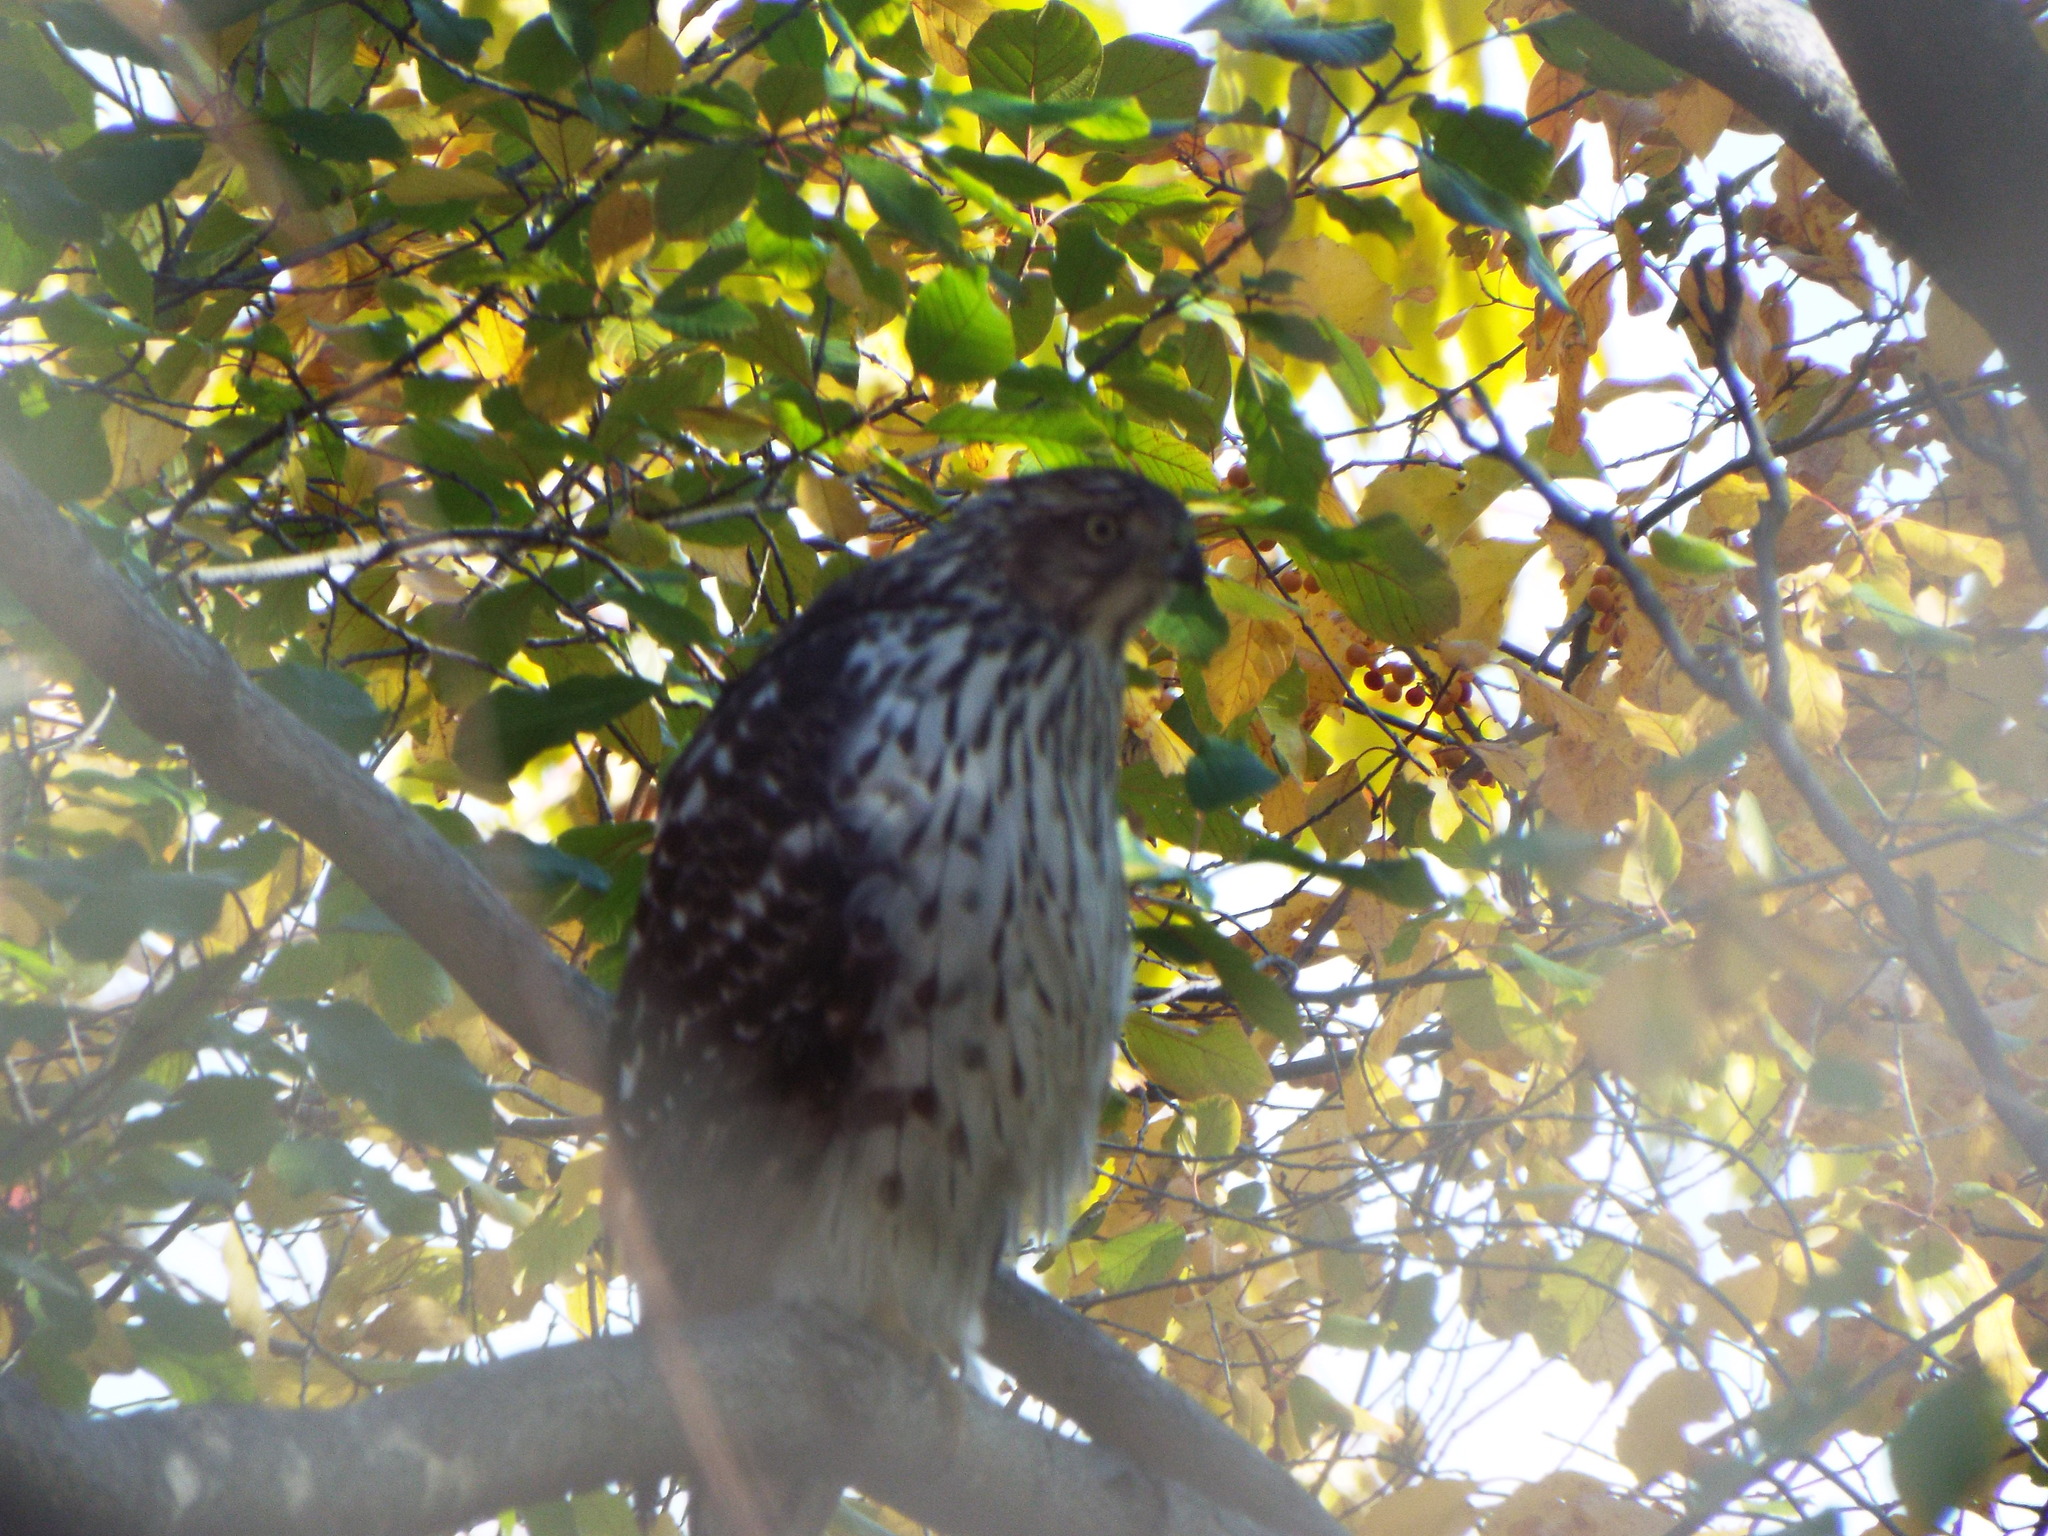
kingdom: Animalia
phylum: Chordata
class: Aves
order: Accipitriformes
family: Accipitridae
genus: Accipiter
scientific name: Accipiter cooperii
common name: Cooper's hawk
